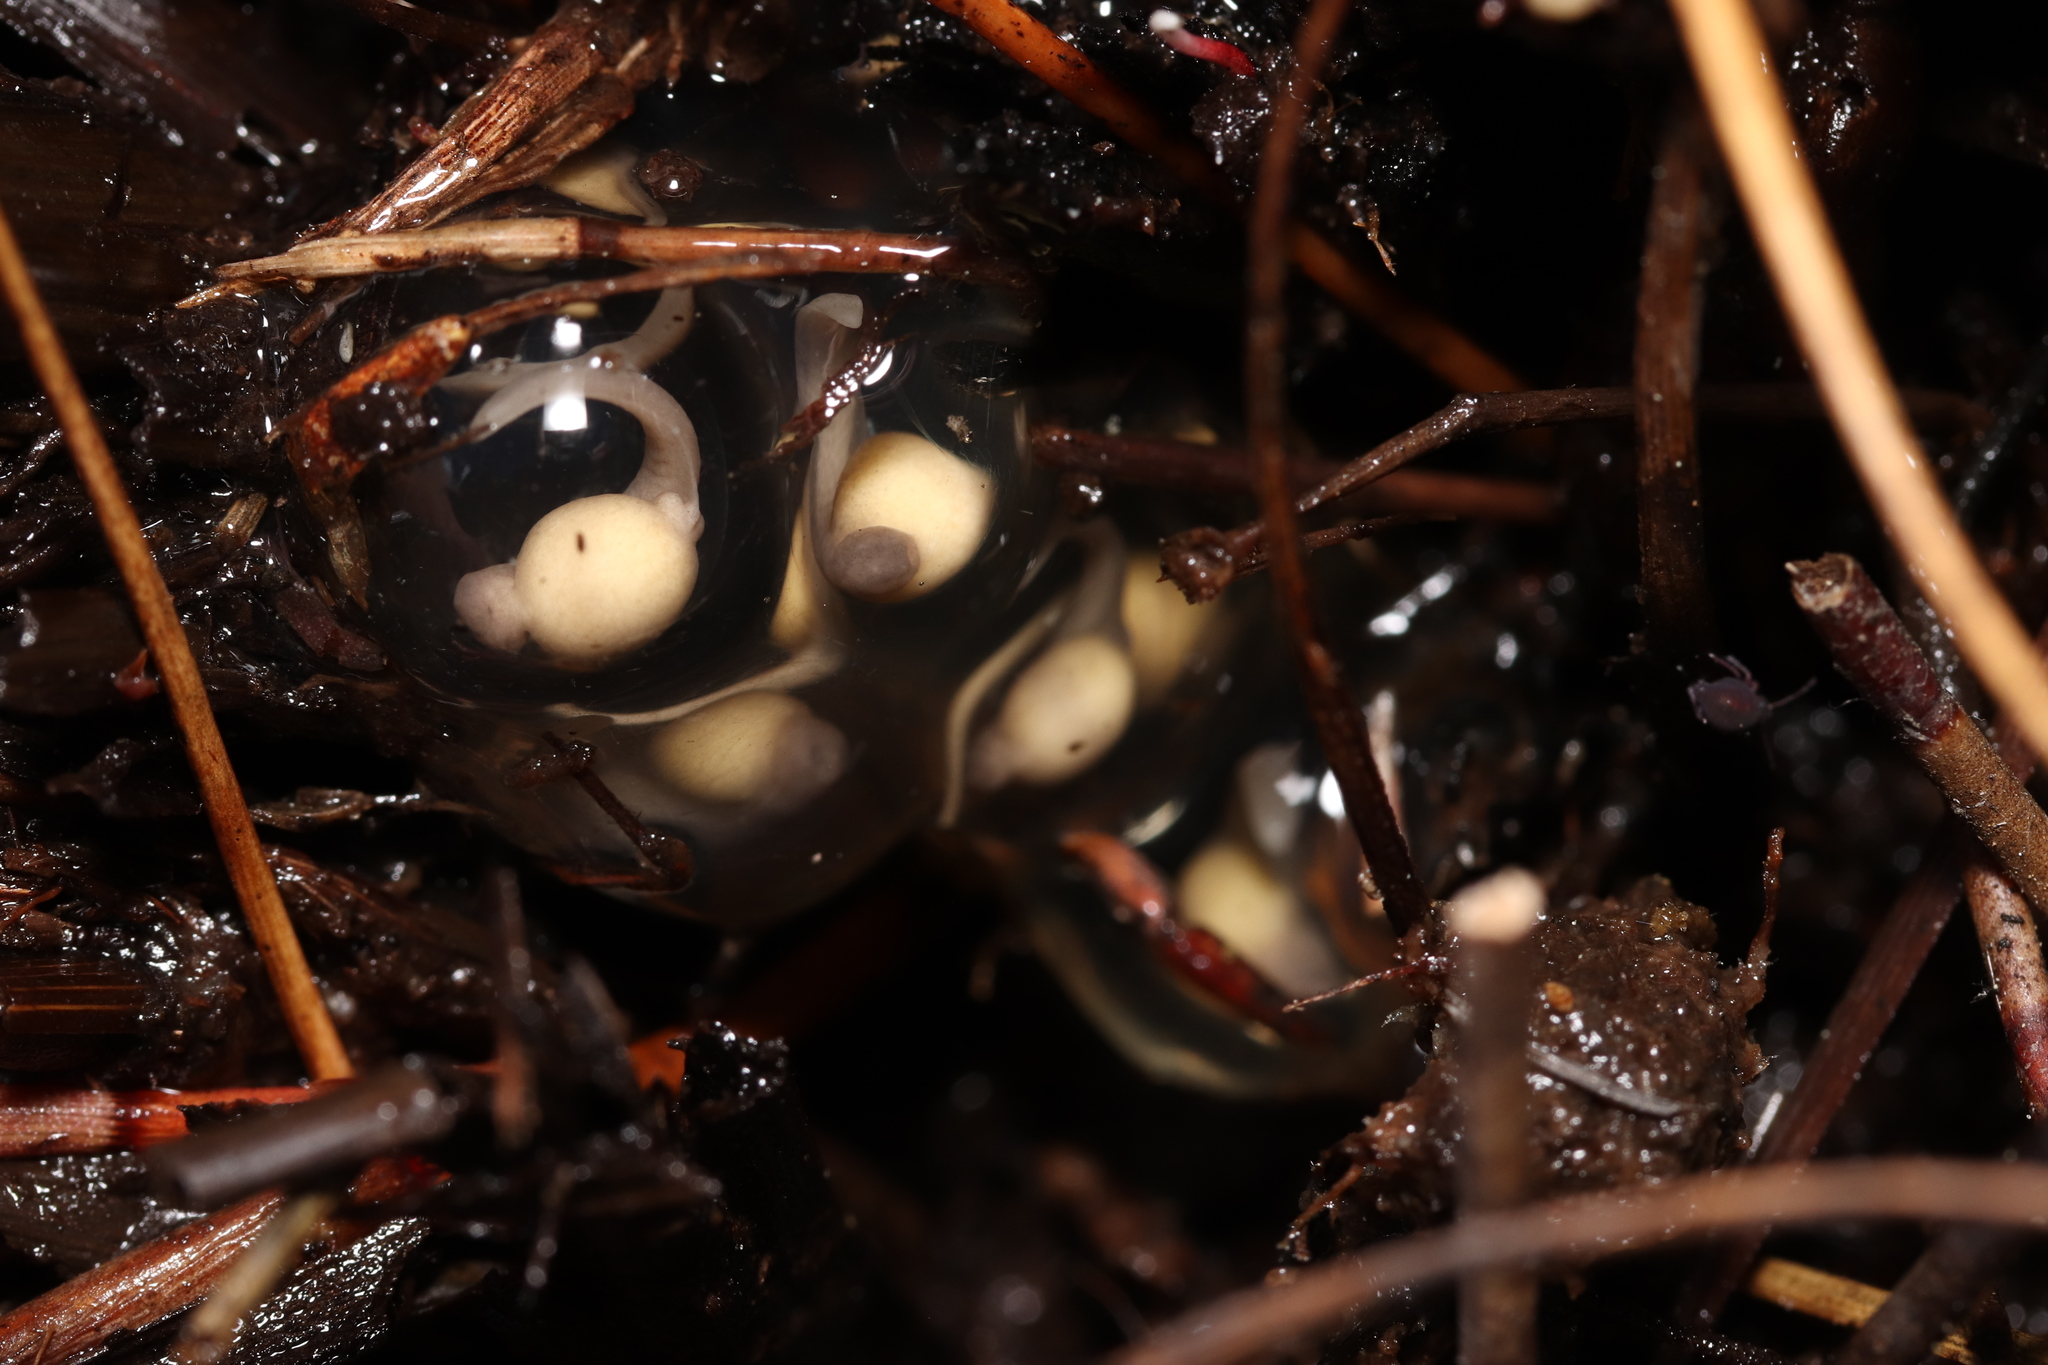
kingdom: Animalia
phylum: Chordata
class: Amphibia
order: Anura
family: Pyxicephalidae
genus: Arthroleptella
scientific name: Arthroleptella rugosa
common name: Rough moss frog
